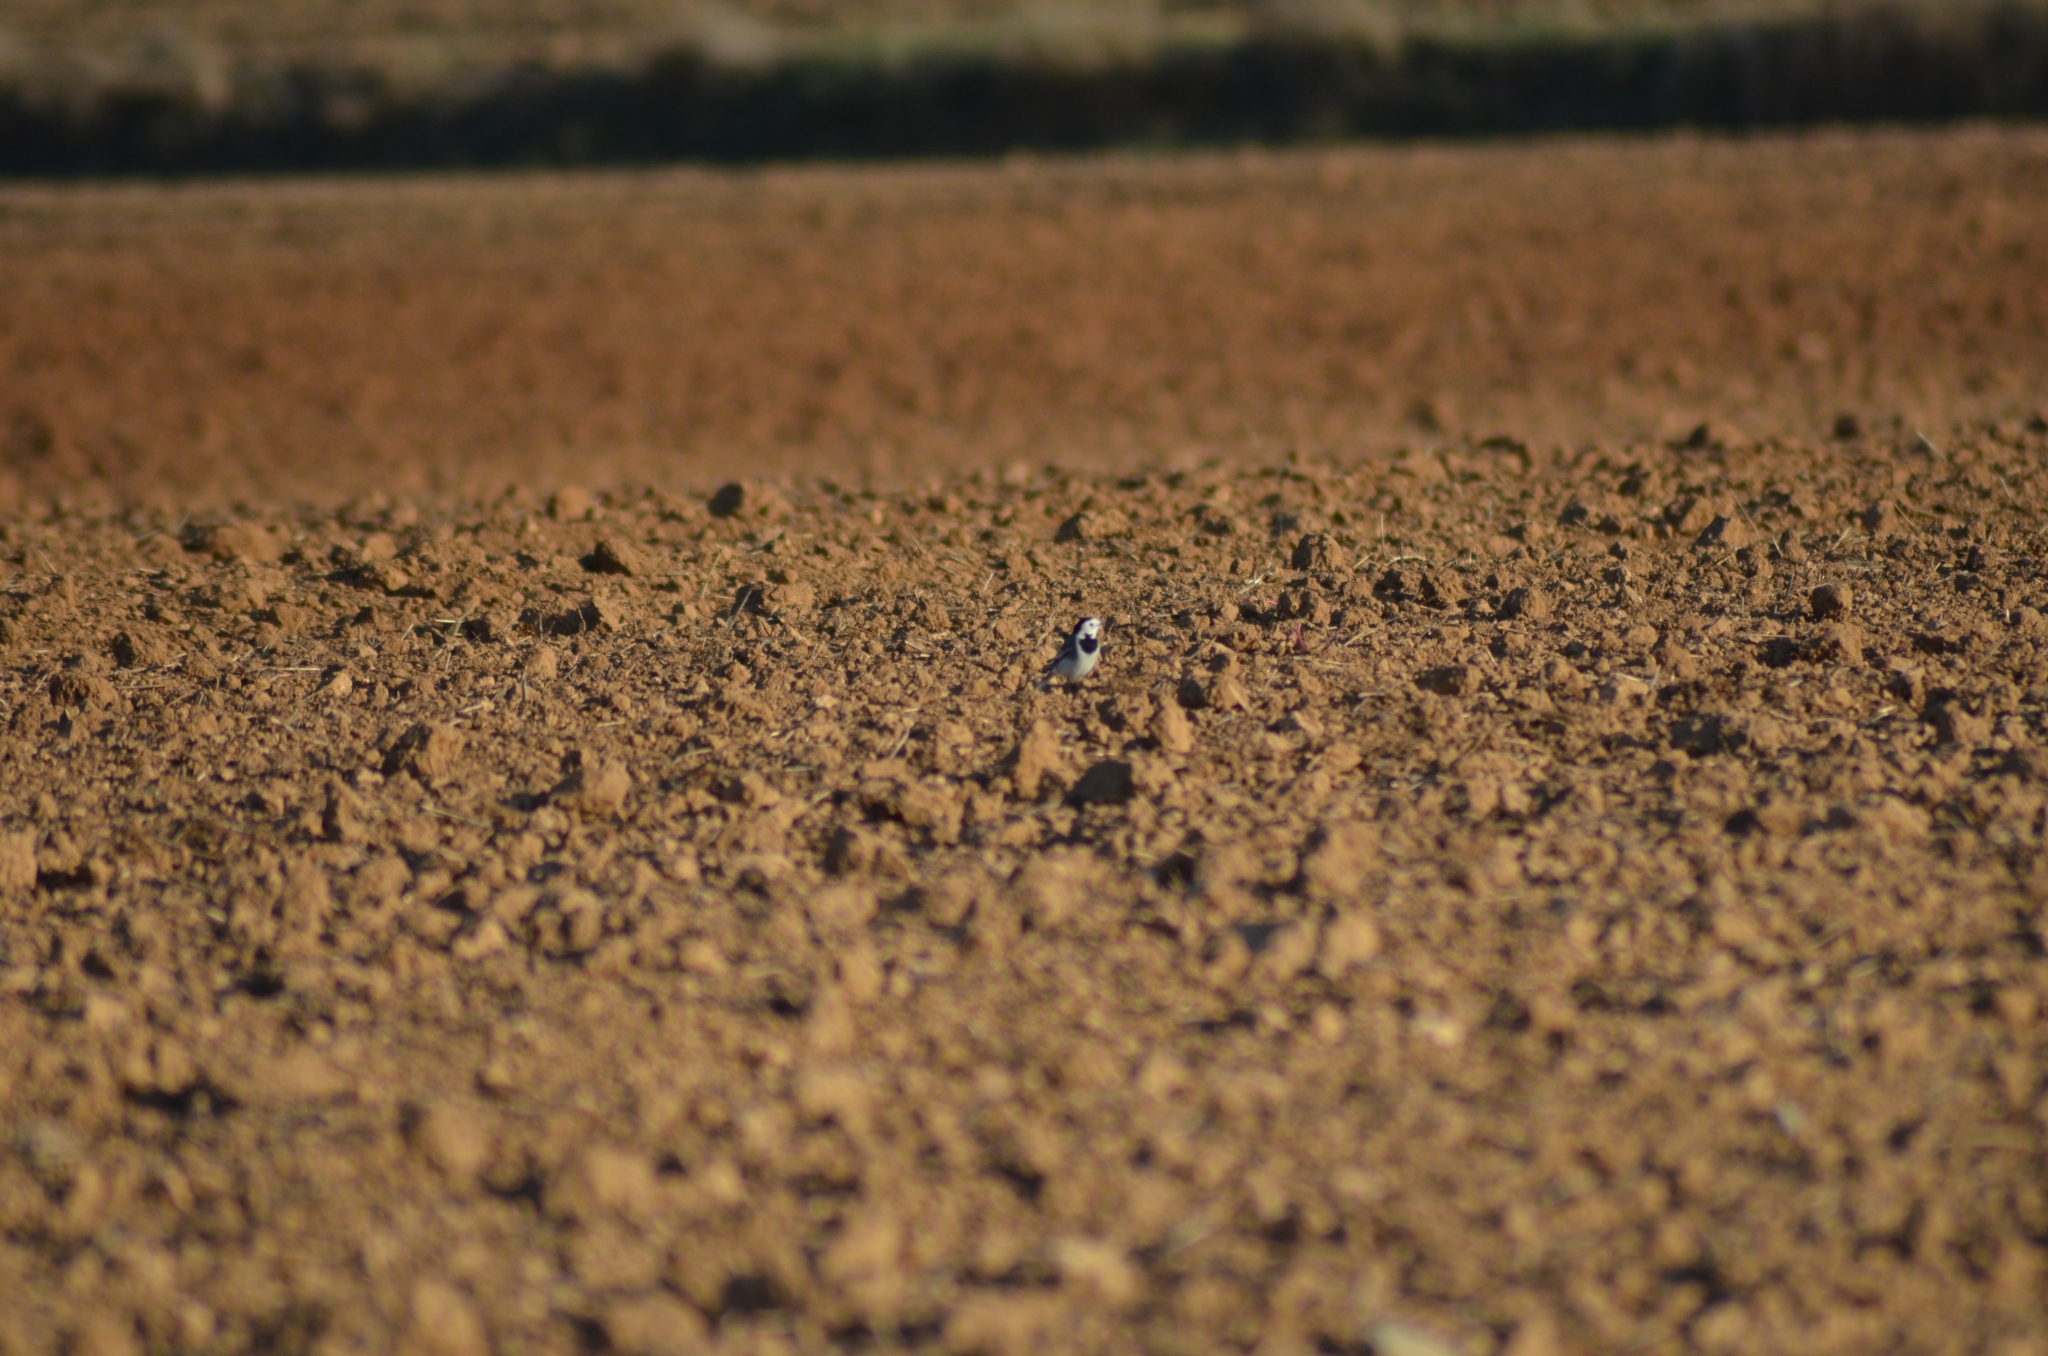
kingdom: Animalia
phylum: Chordata
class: Aves
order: Passeriformes
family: Motacillidae
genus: Motacilla
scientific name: Motacilla alba
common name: White wagtail
